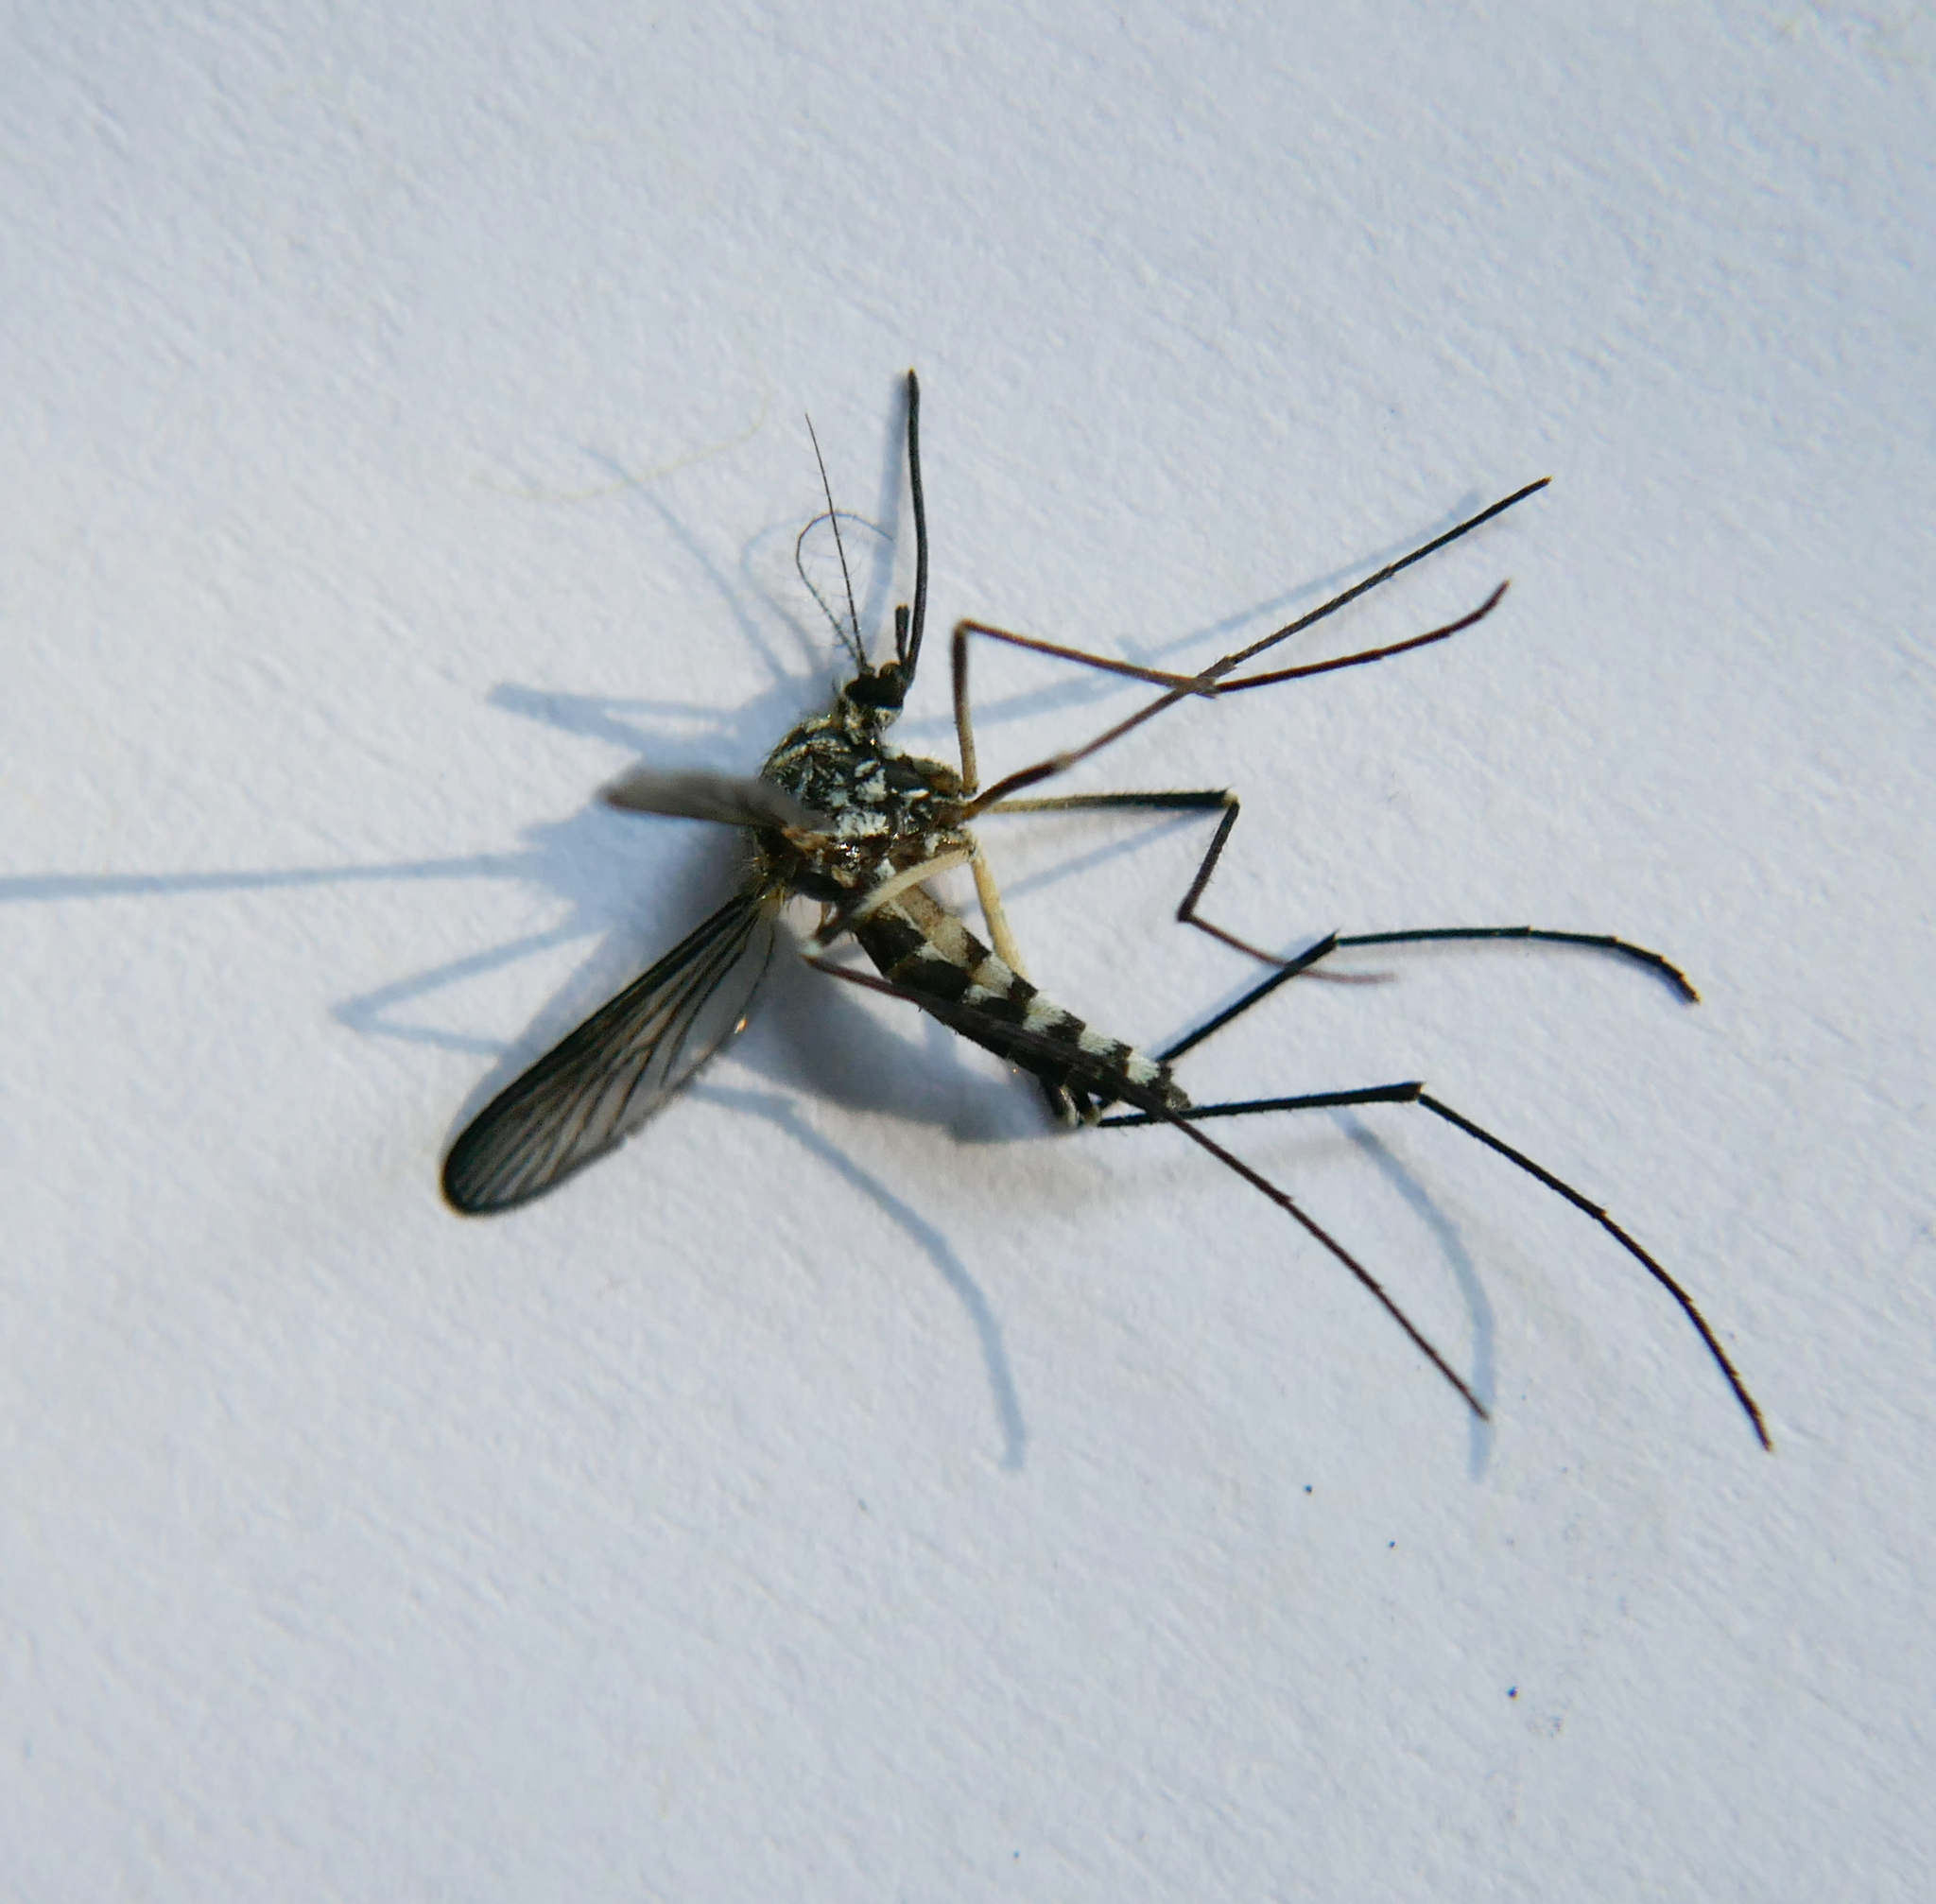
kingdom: Animalia
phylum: Arthropoda
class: Insecta
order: Diptera
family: Culicidae
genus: Aedes
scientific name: Aedes geniculatus
